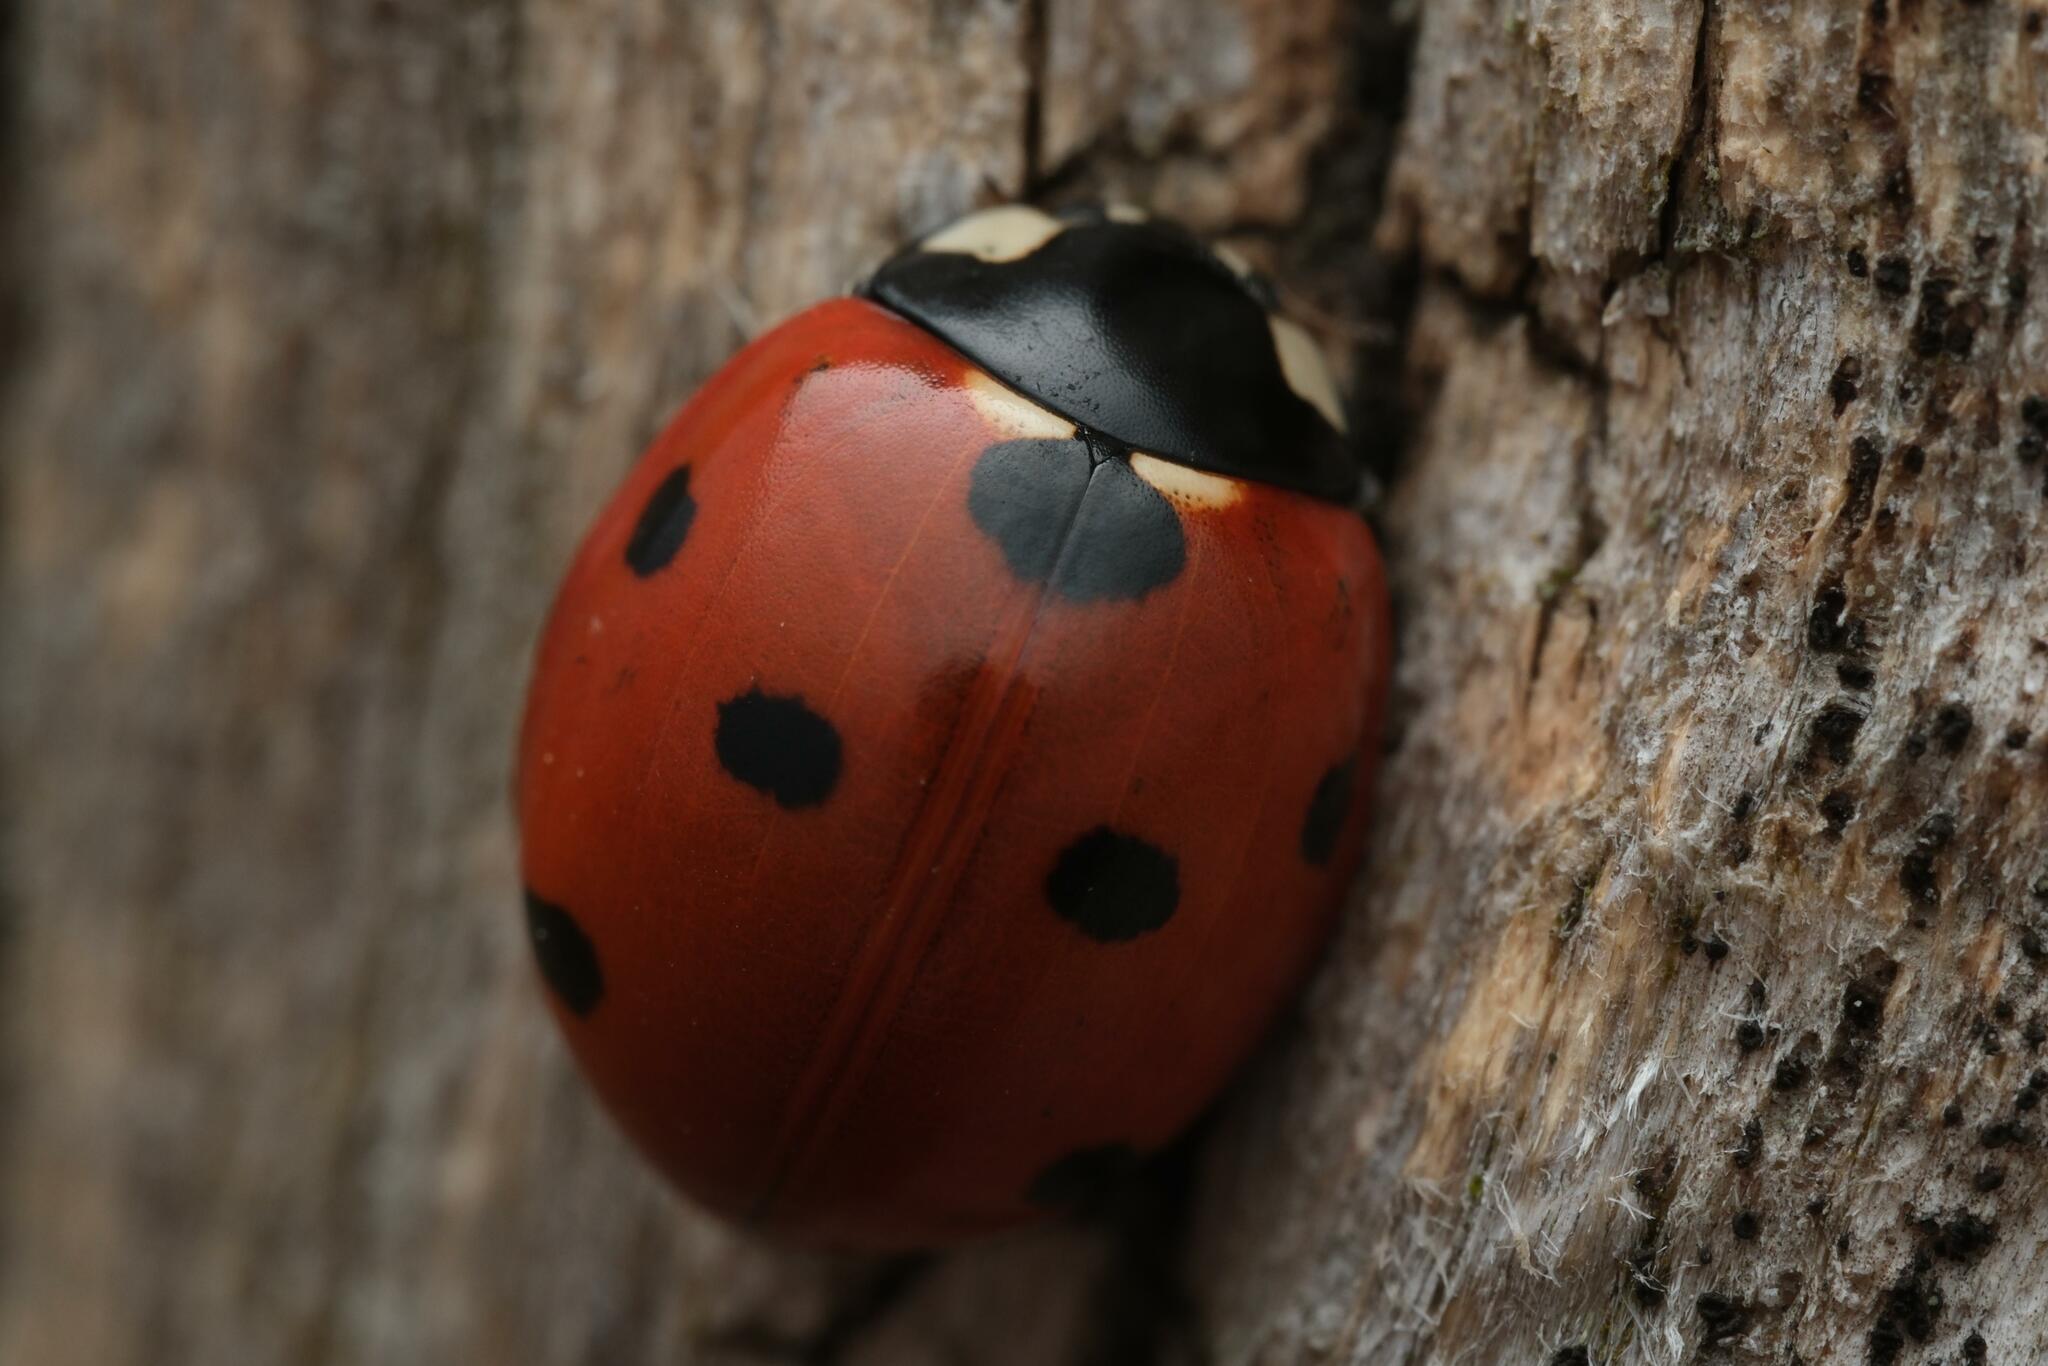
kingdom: Animalia
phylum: Arthropoda
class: Insecta
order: Coleoptera
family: Coccinellidae
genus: Coccinella
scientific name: Coccinella septempunctata
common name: Sevenspotted lady beetle
